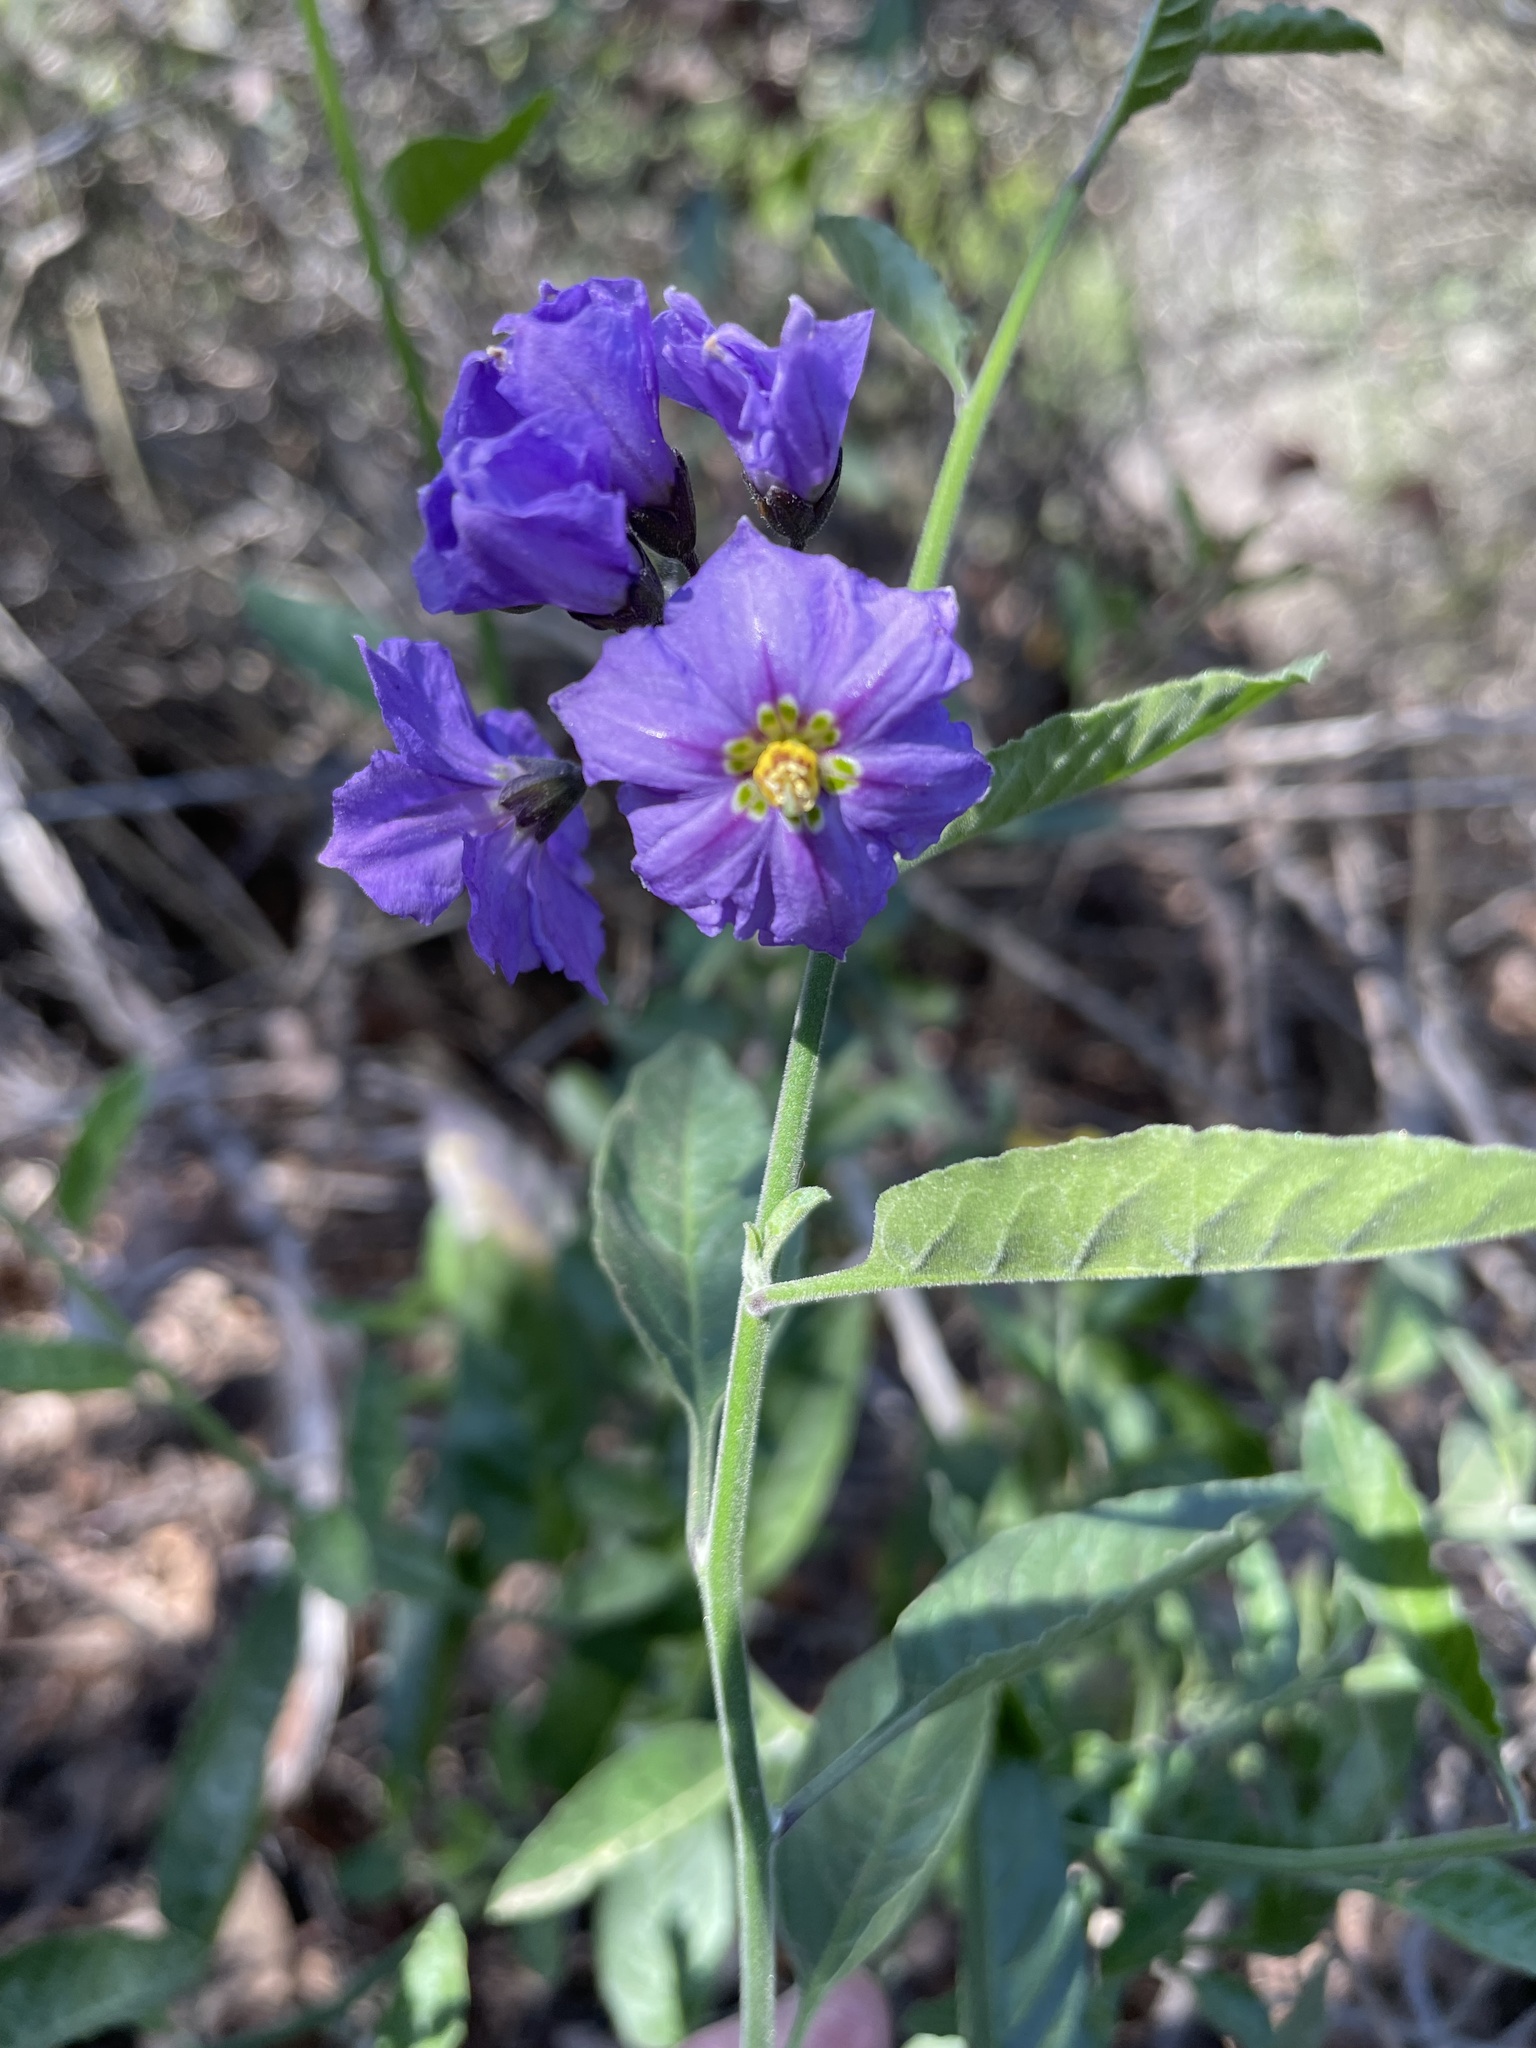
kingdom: Plantae
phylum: Tracheophyta
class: Magnoliopsida
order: Solanales
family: Solanaceae
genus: Solanum
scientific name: Solanum umbelliferum
